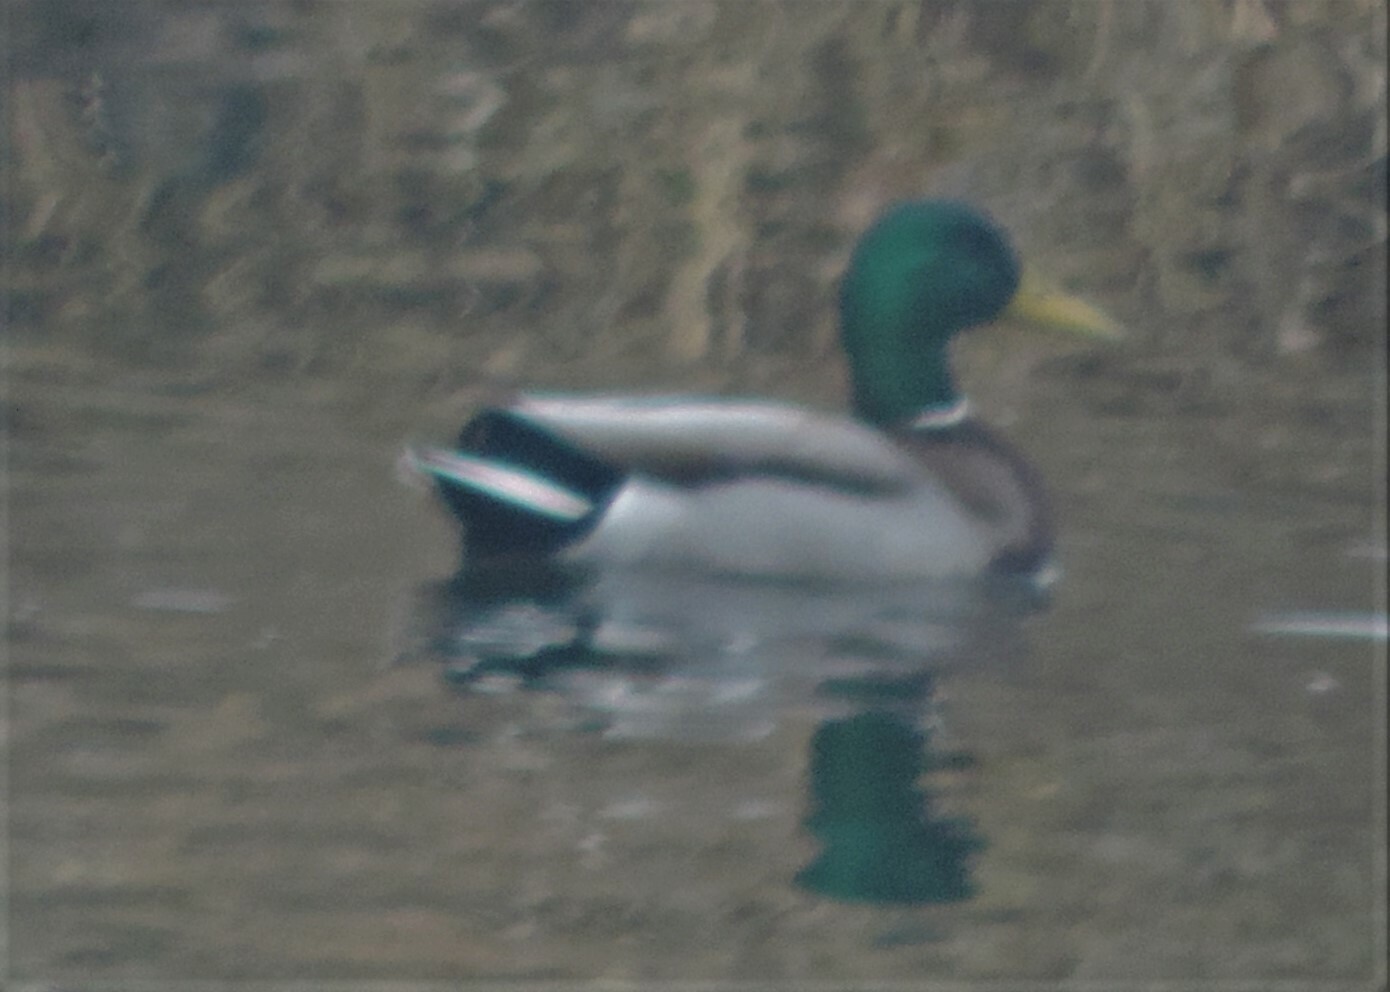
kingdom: Animalia
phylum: Chordata
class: Aves
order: Anseriformes
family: Anatidae
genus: Anas
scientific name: Anas platyrhynchos
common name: Mallard
